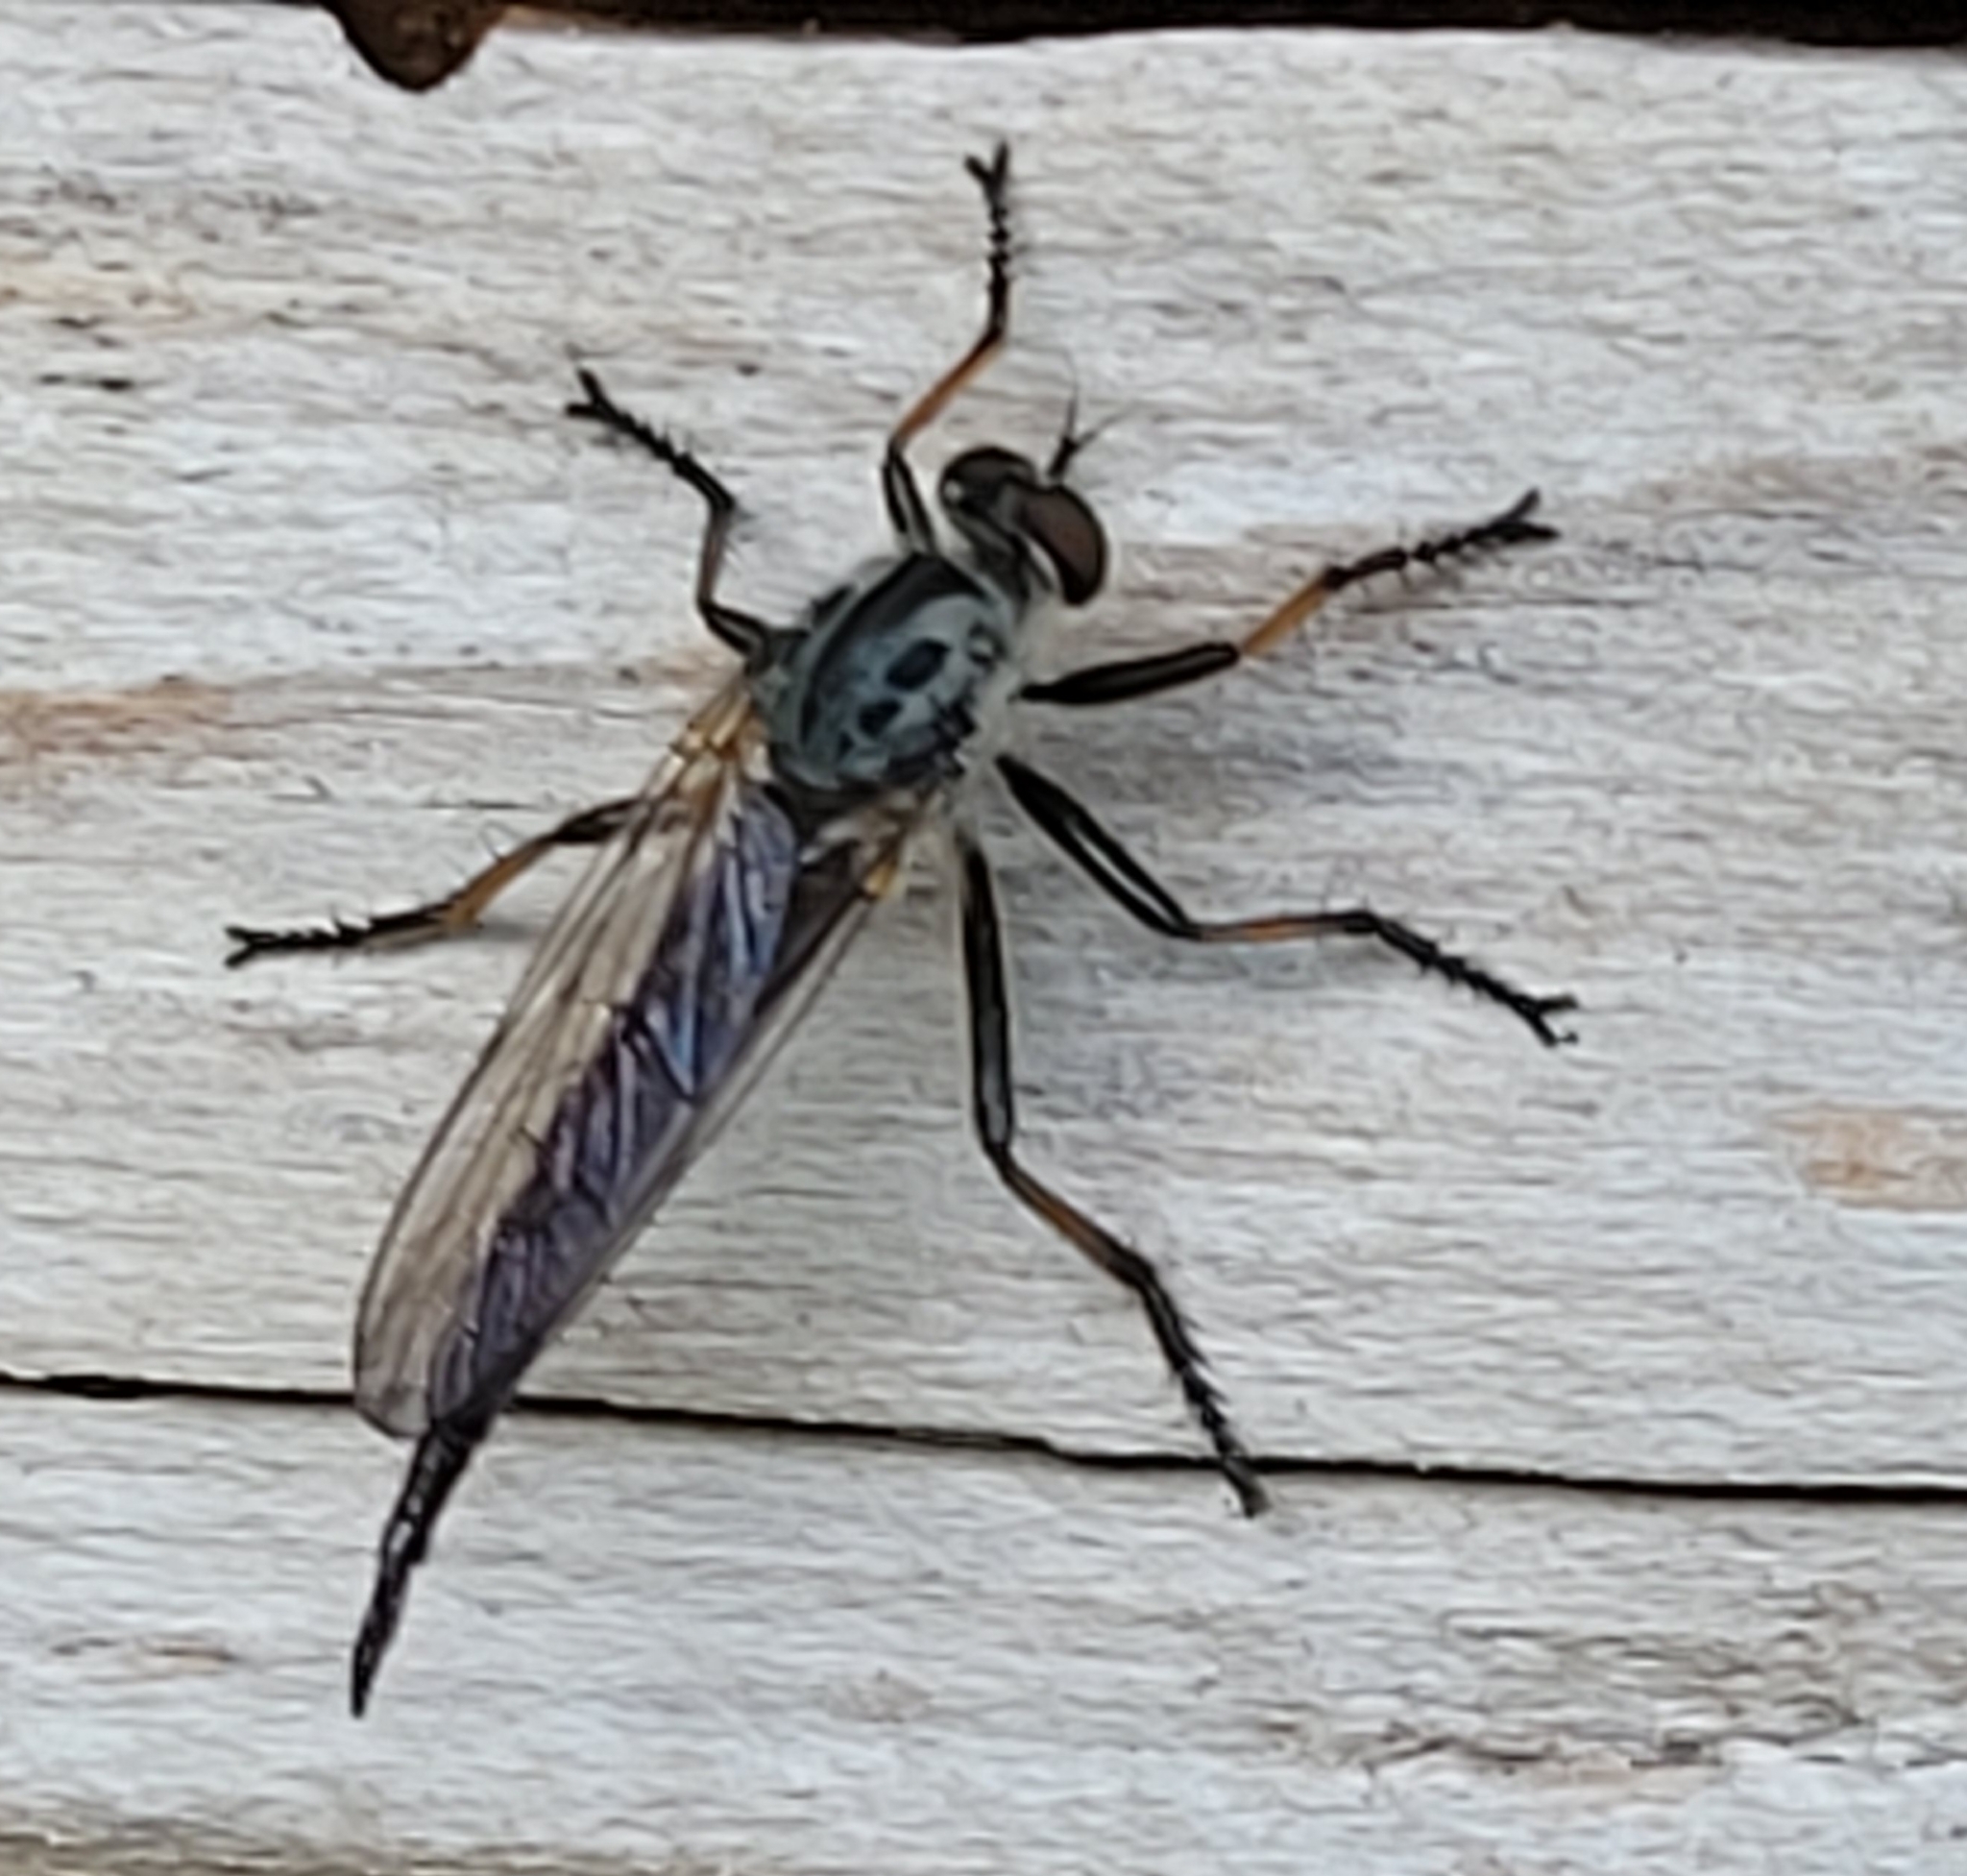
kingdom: Animalia
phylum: Arthropoda
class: Insecta
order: Diptera
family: Asilidae
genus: Neoitamus
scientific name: Neoitamus cyanurus
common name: Common awl robberfly
